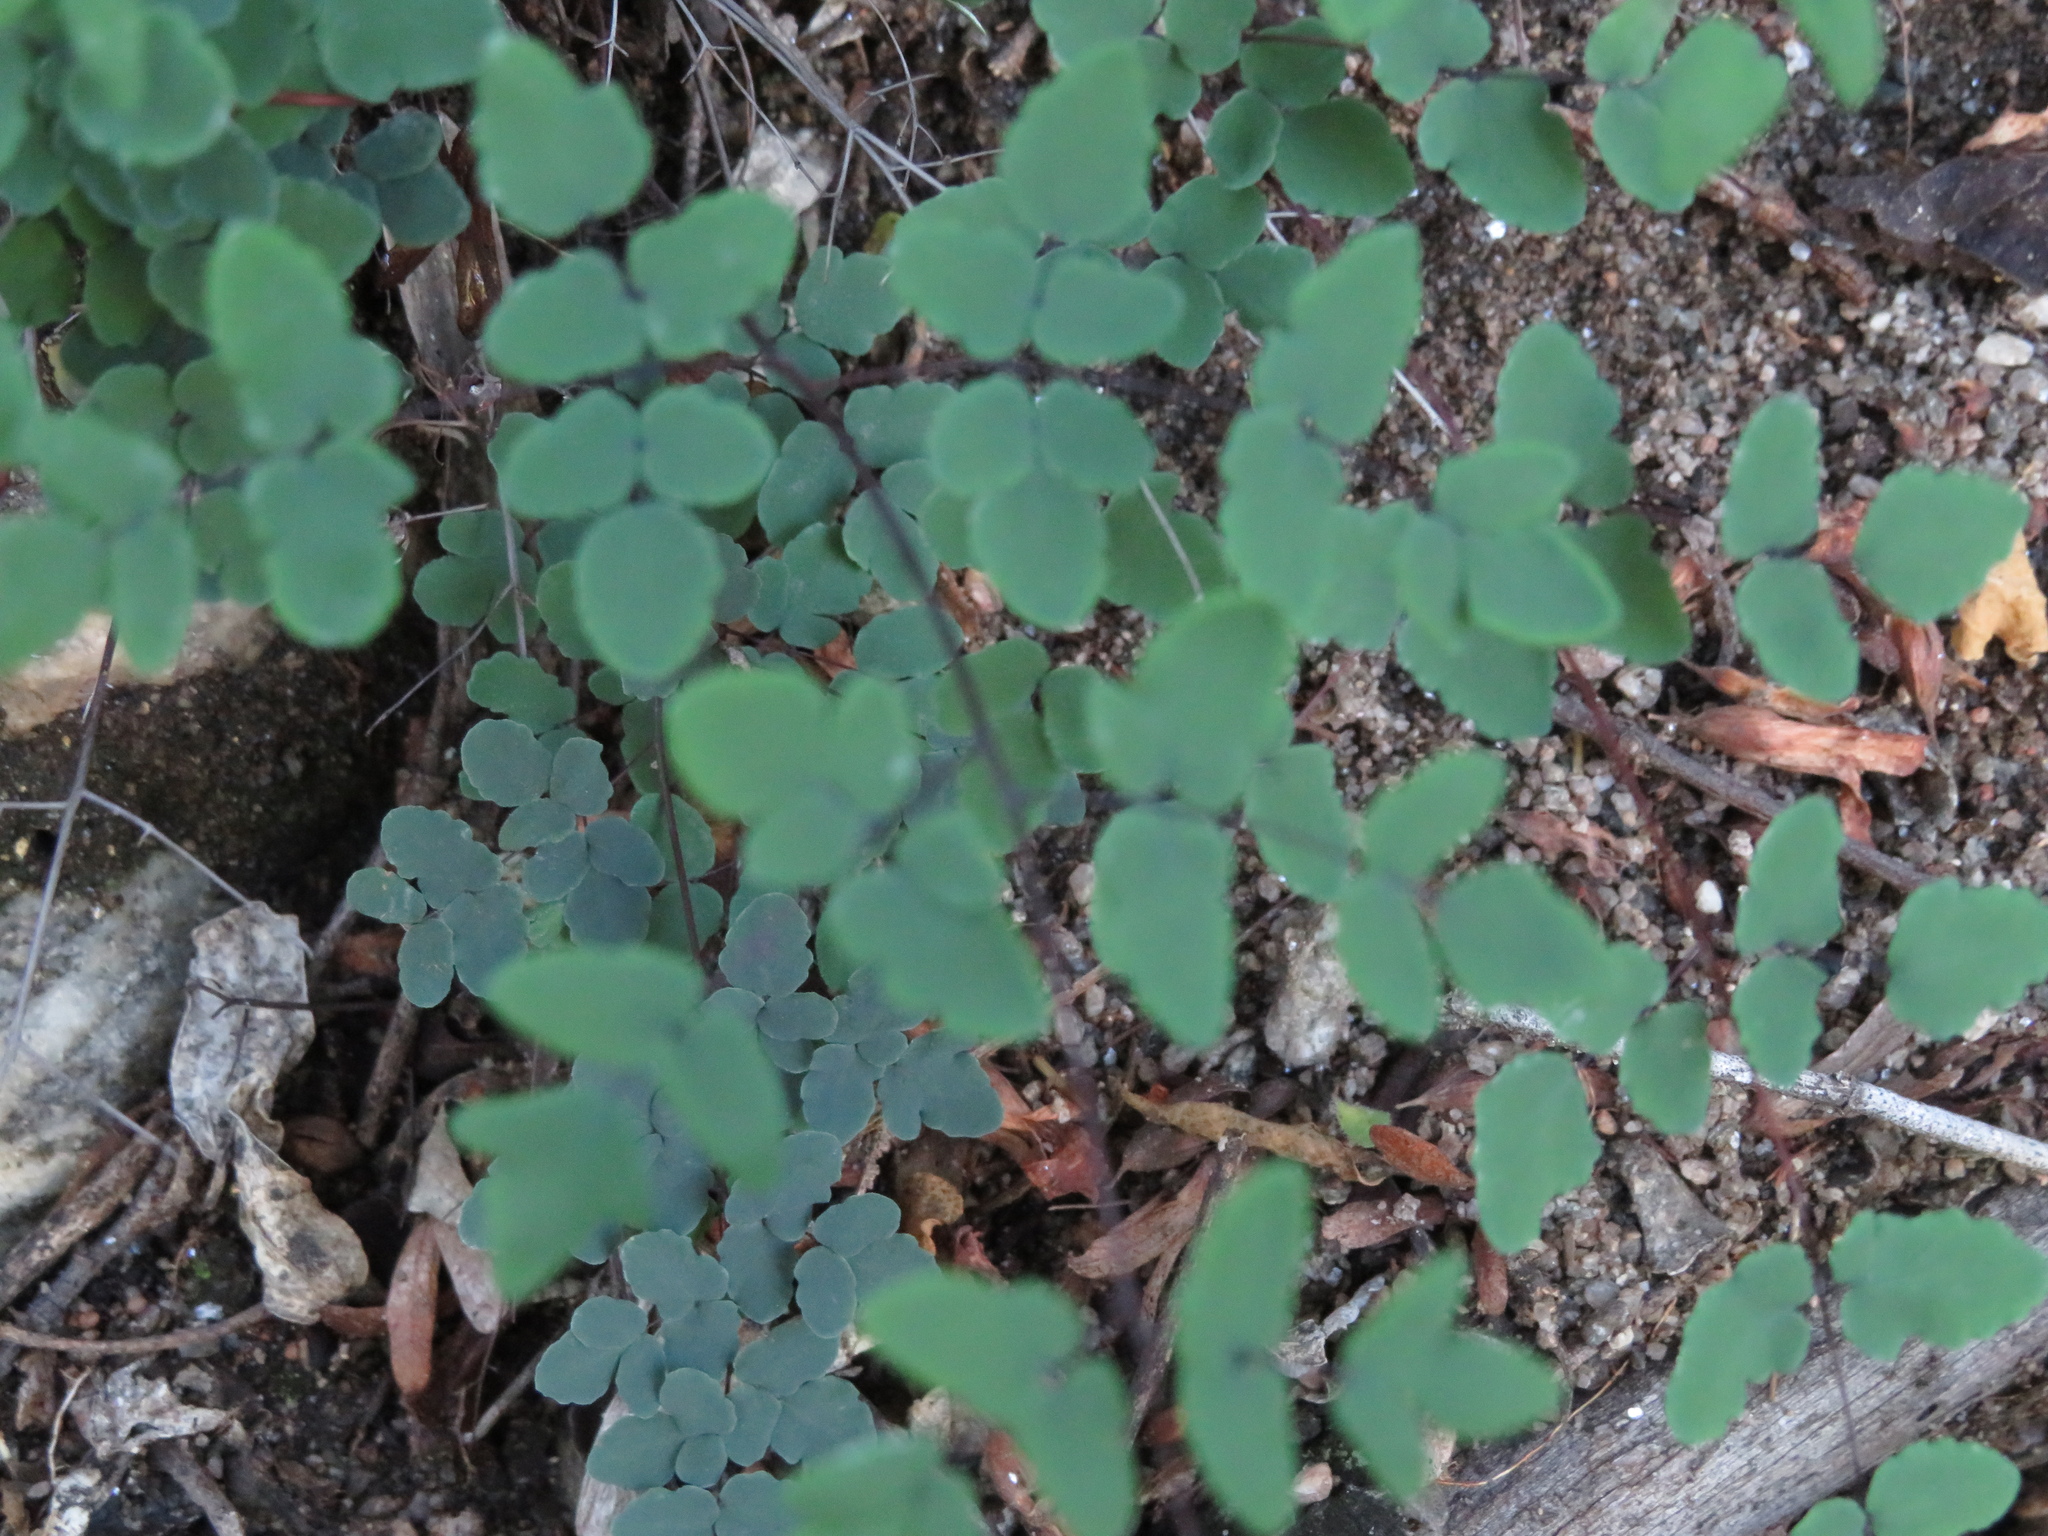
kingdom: Plantae
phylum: Tracheophyta
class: Polypodiopsida
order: Polypodiales
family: Pteridaceae
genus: Argyrochosma
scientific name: Argyrochosma nivea
